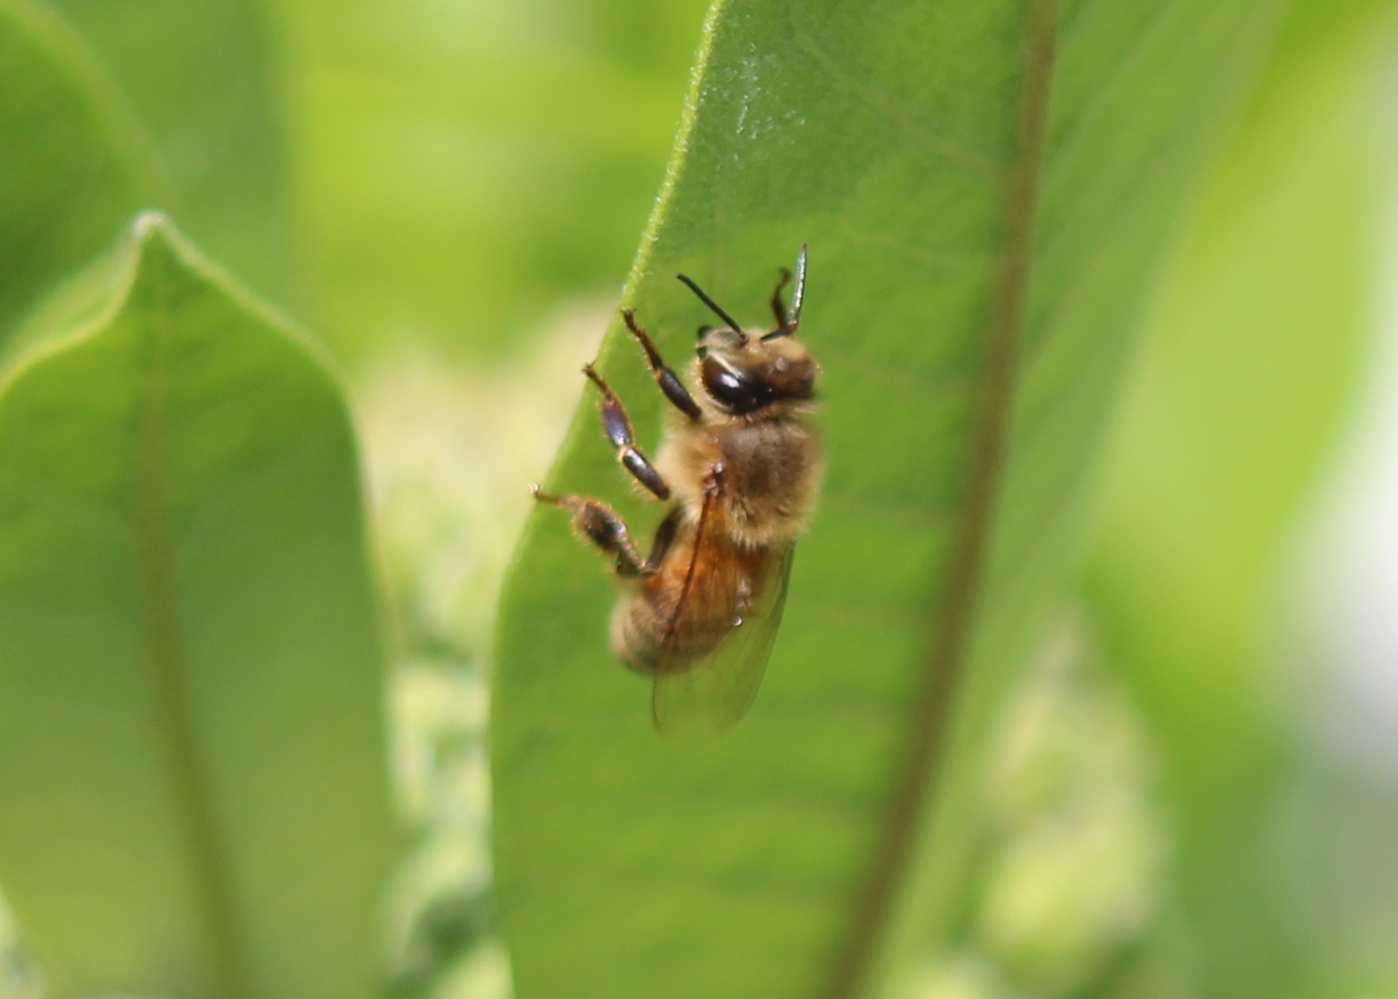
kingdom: Animalia
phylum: Arthropoda
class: Insecta
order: Hymenoptera
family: Apidae
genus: Apis
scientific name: Apis mellifera
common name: Honey bee
